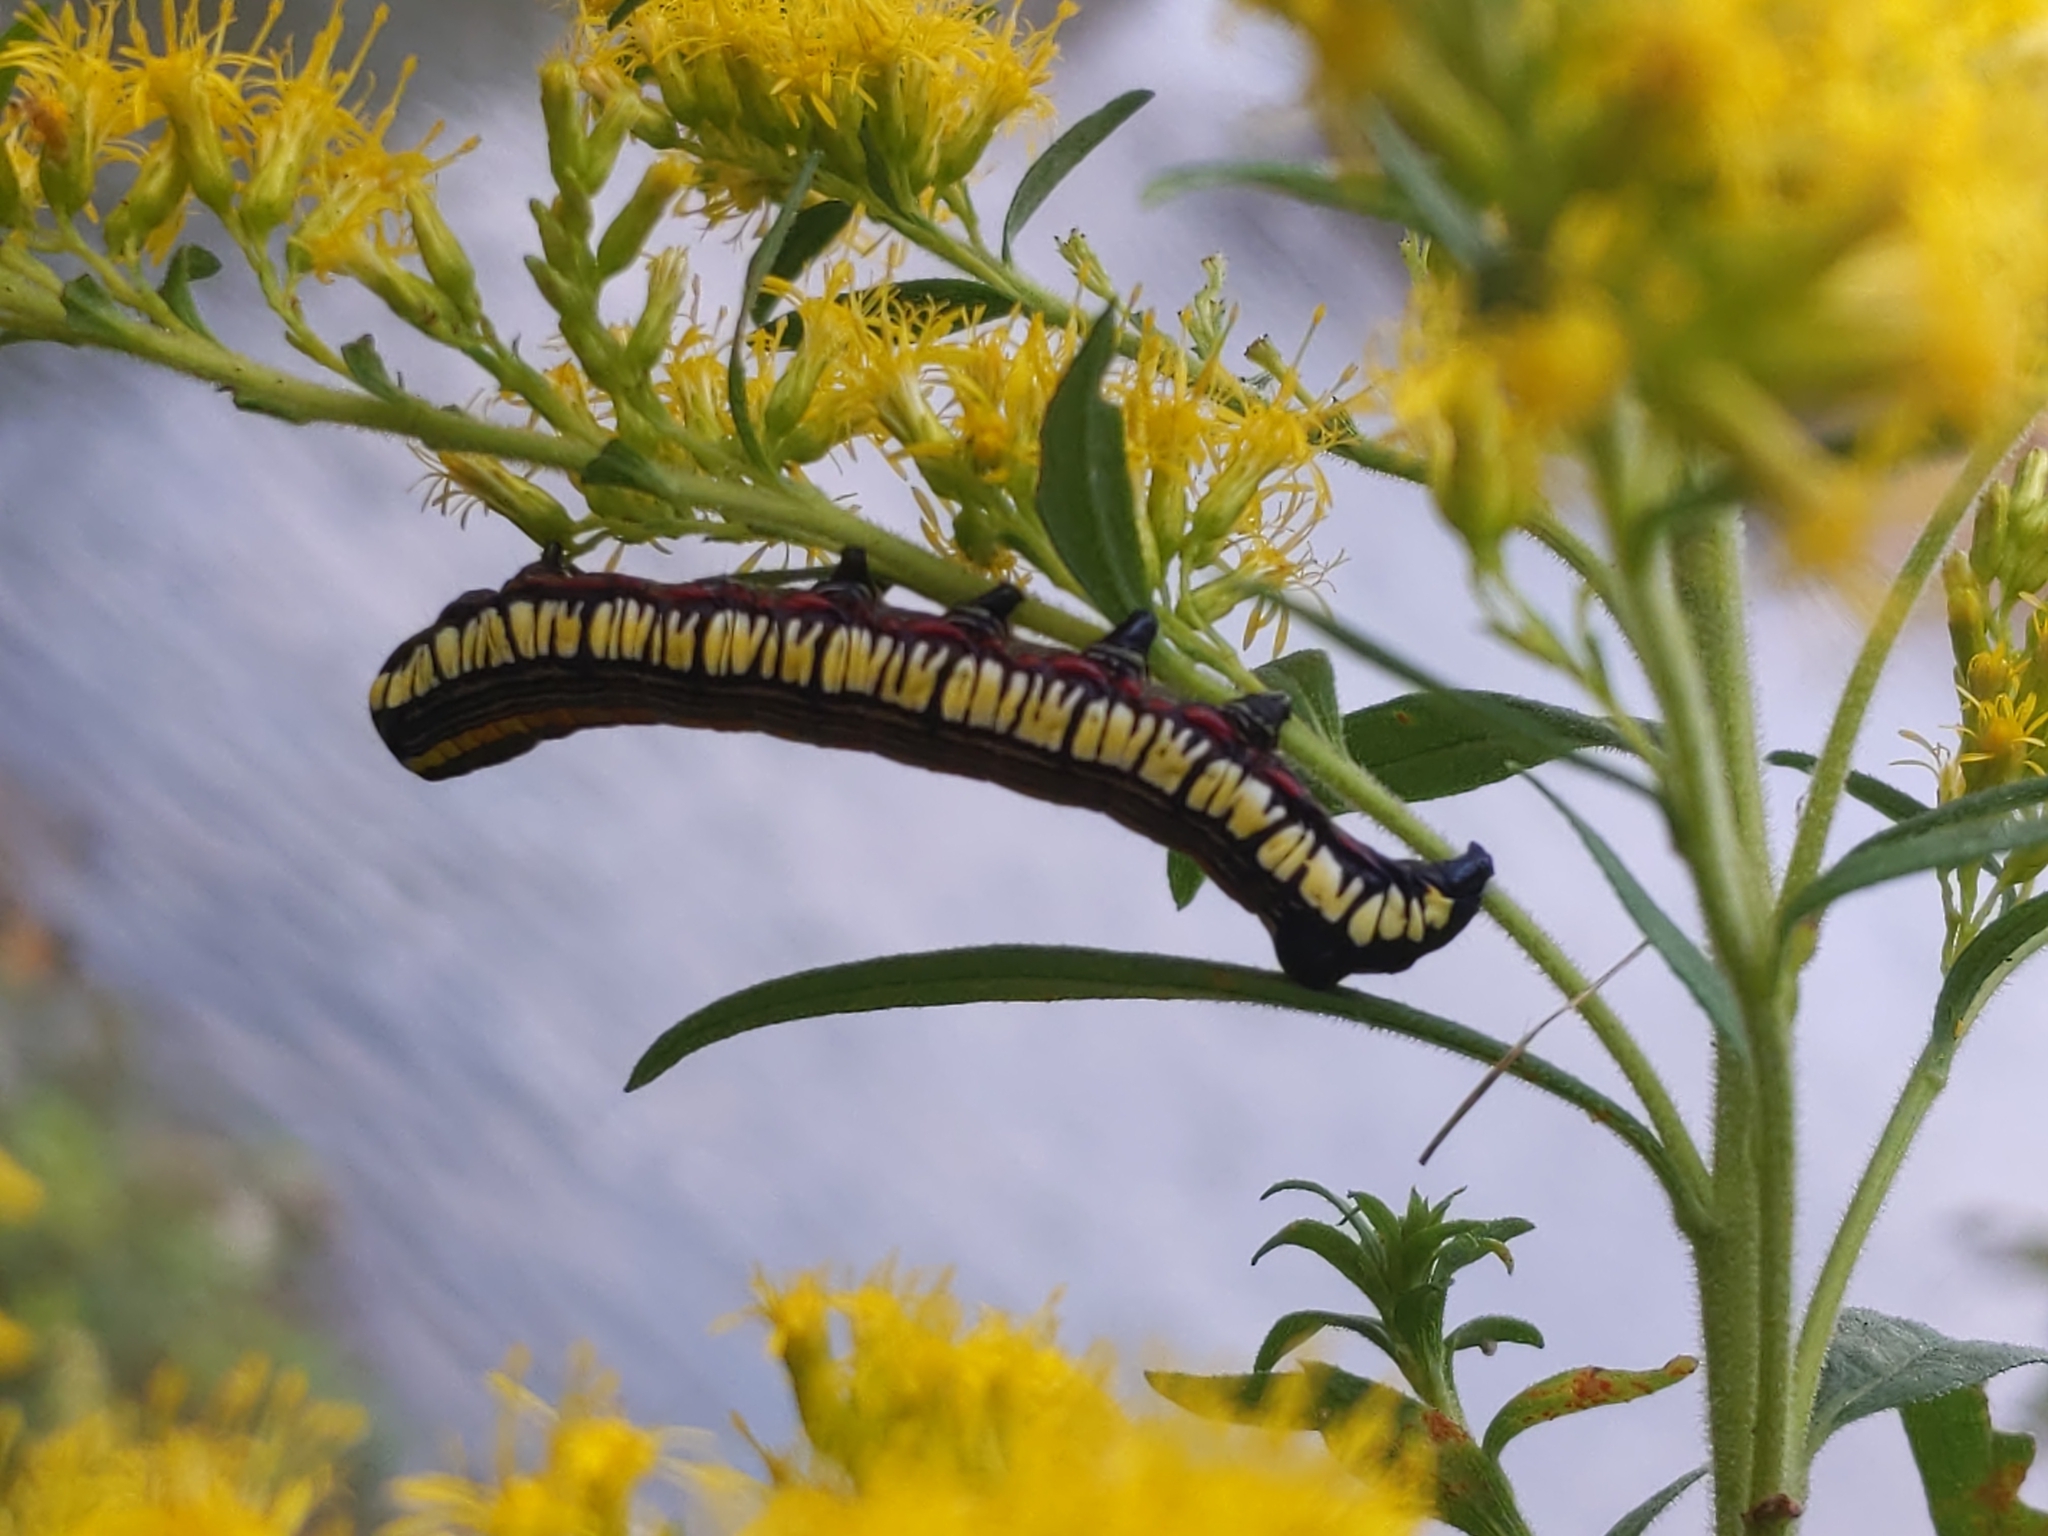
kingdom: Animalia
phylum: Arthropoda
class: Insecta
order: Lepidoptera
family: Noctuidae
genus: Cucullia
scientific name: Cucullia convexipennis
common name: Brown-hooded owlet
